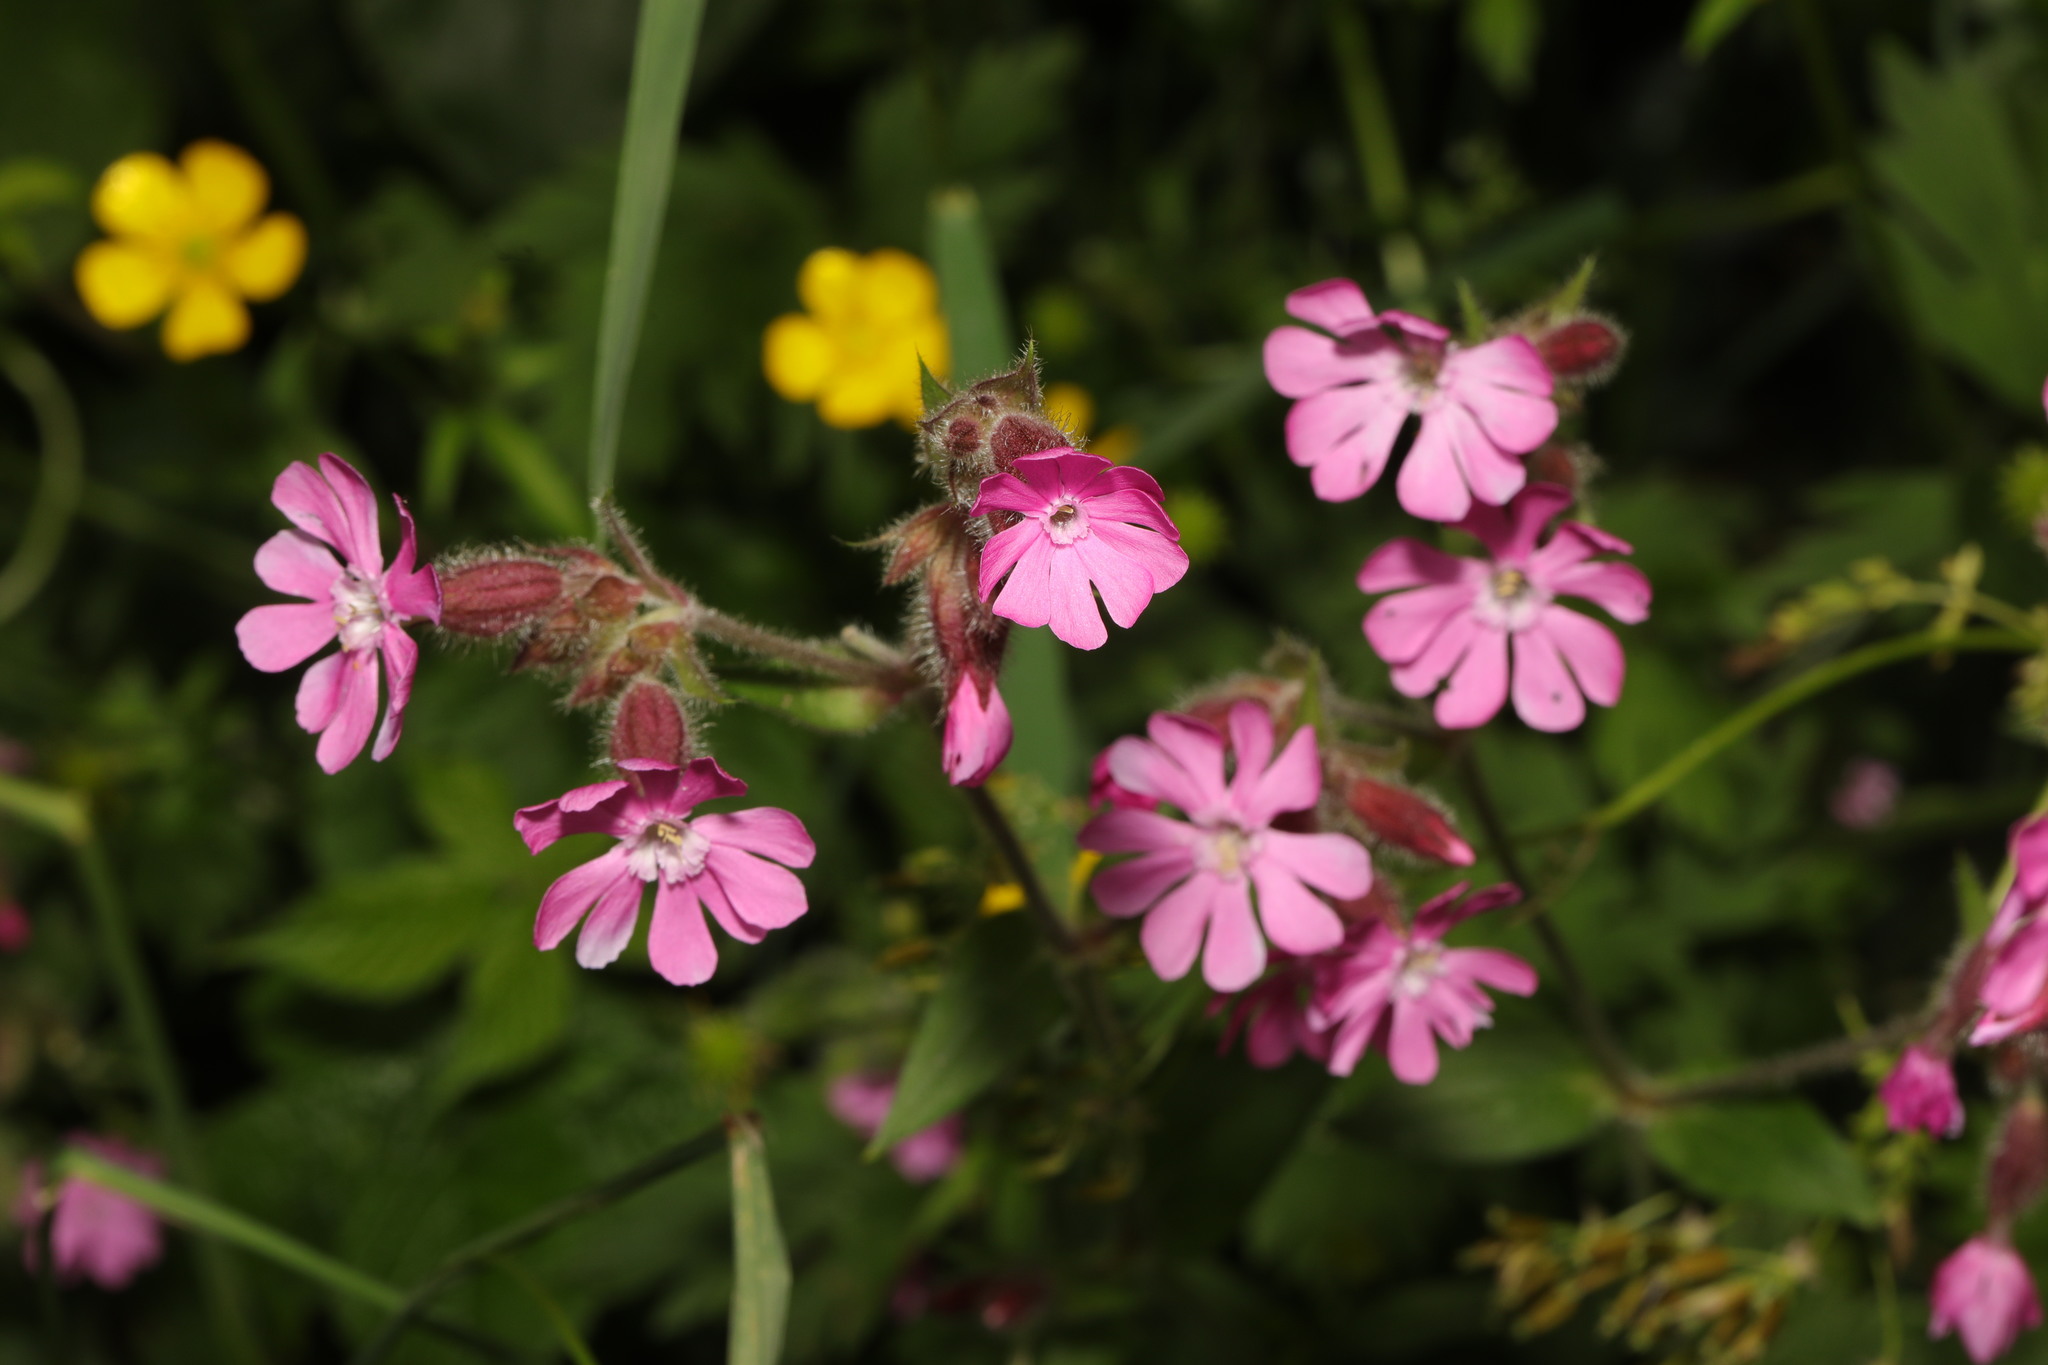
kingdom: Plantae
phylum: Tracheophyta
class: Magnoliopsida
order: Caryophyllales
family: Caryophyllaceae
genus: Silene
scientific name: Silene dioica
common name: Red campion
